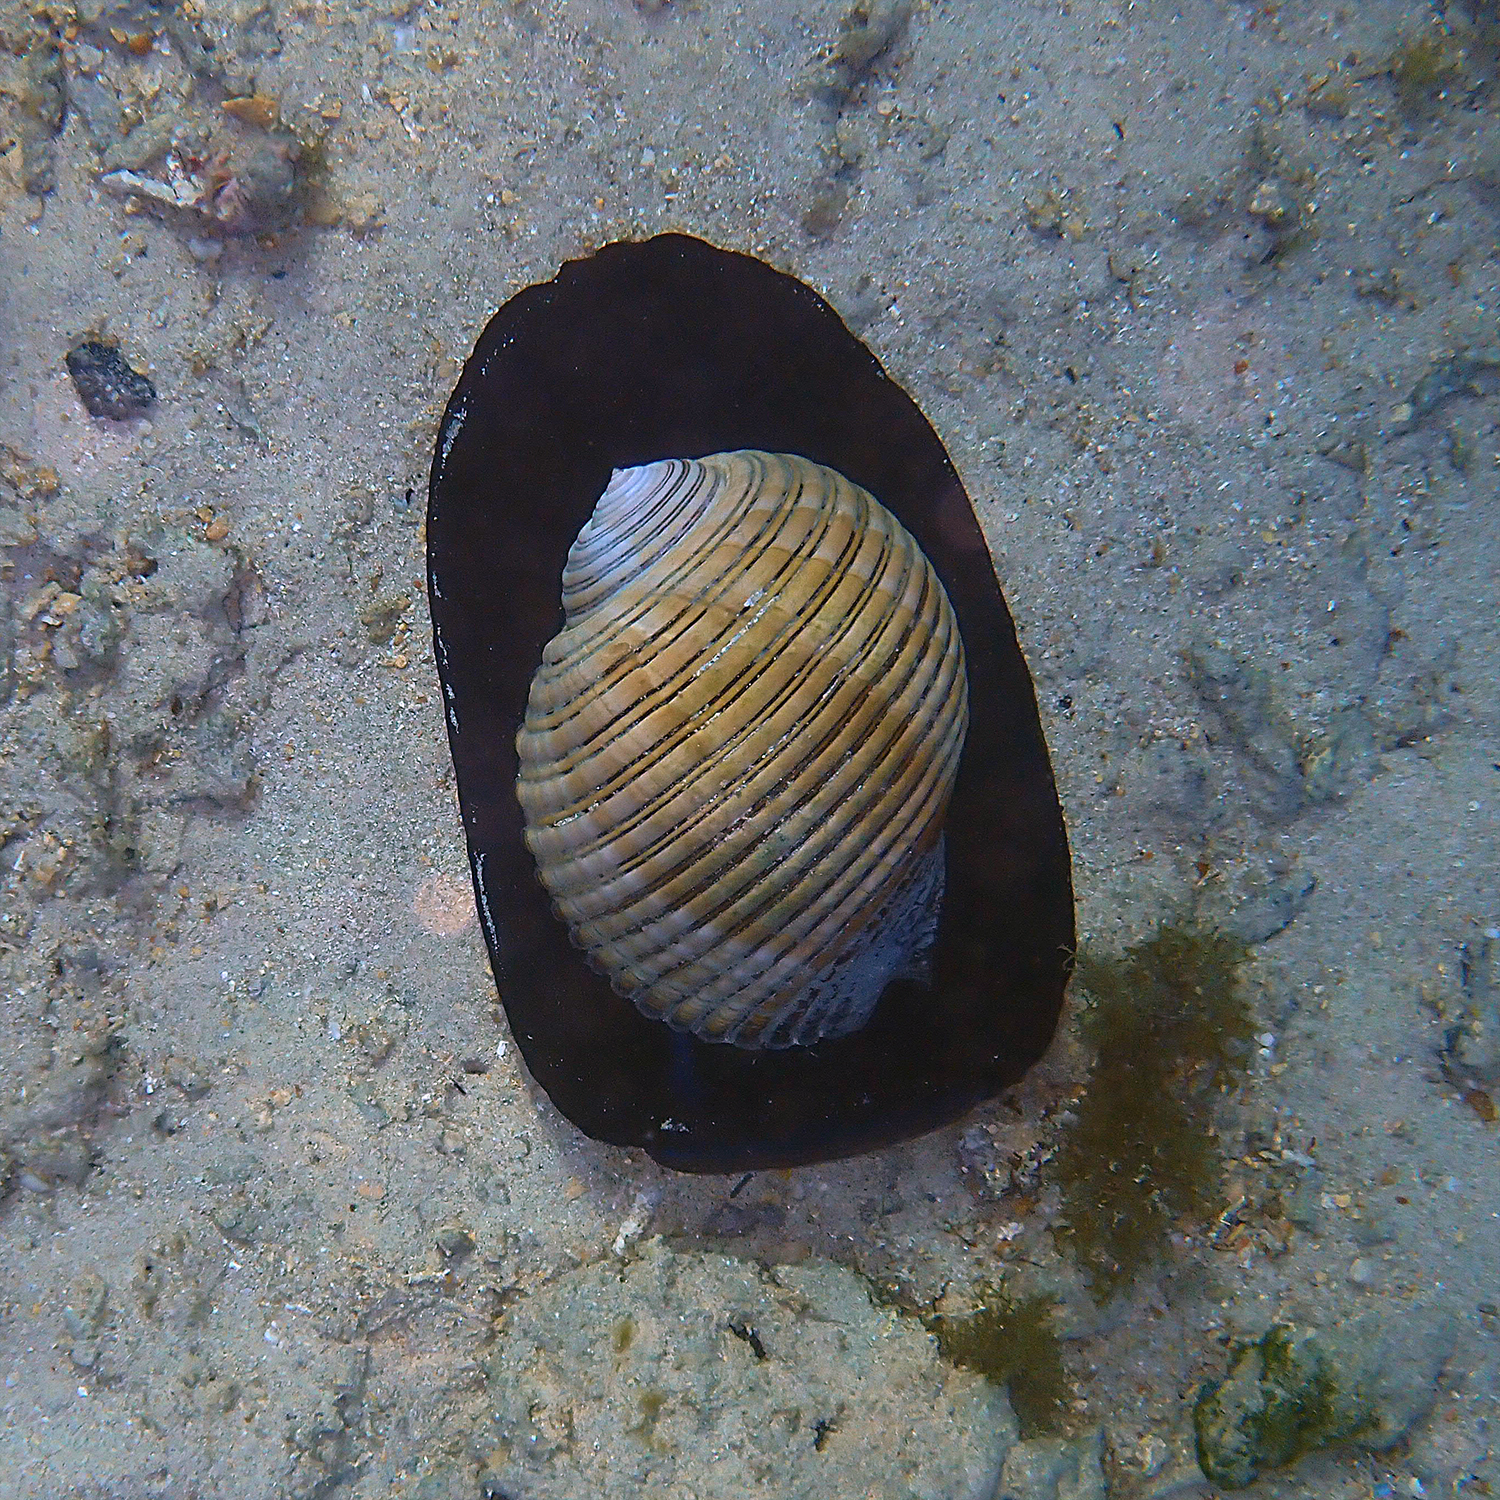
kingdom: Animalia
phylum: Mollusca
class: Gastropoda
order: Littorinimorpha
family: Tonnidae
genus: Tonna
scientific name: Tonna melanostoma
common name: Black mouthed tun
